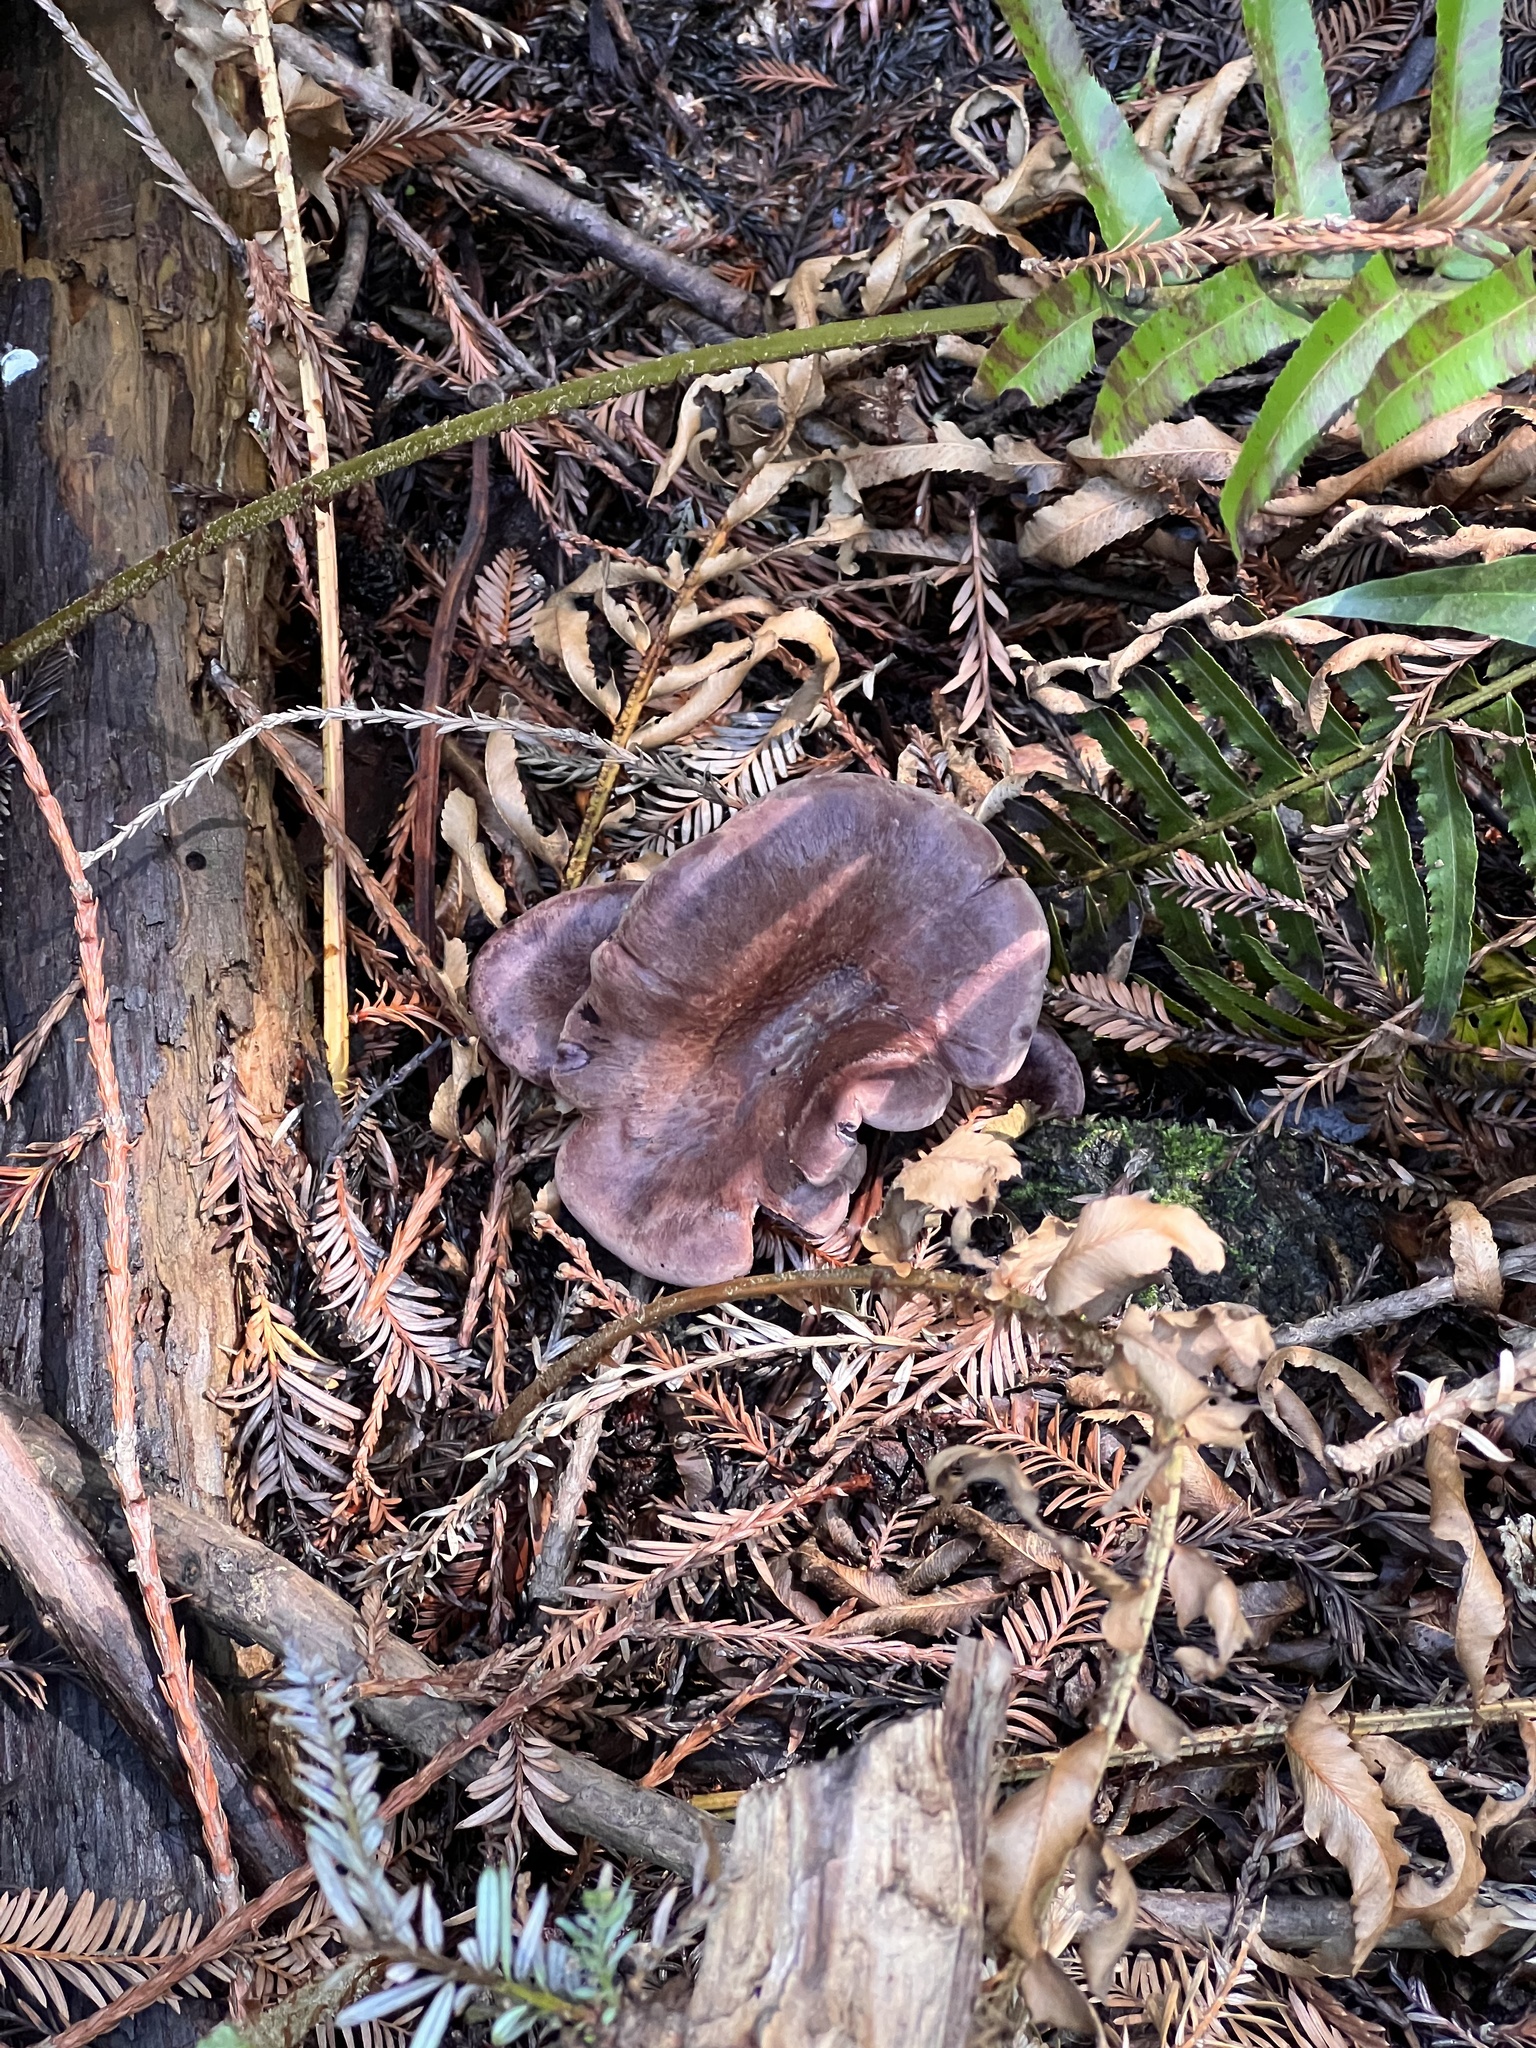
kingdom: Fungi
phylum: Basidiomycota
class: Agaricomycetes
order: Polyporales
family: Panaceae
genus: Panus
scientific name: Panus conchatus
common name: Lilac oysterling
